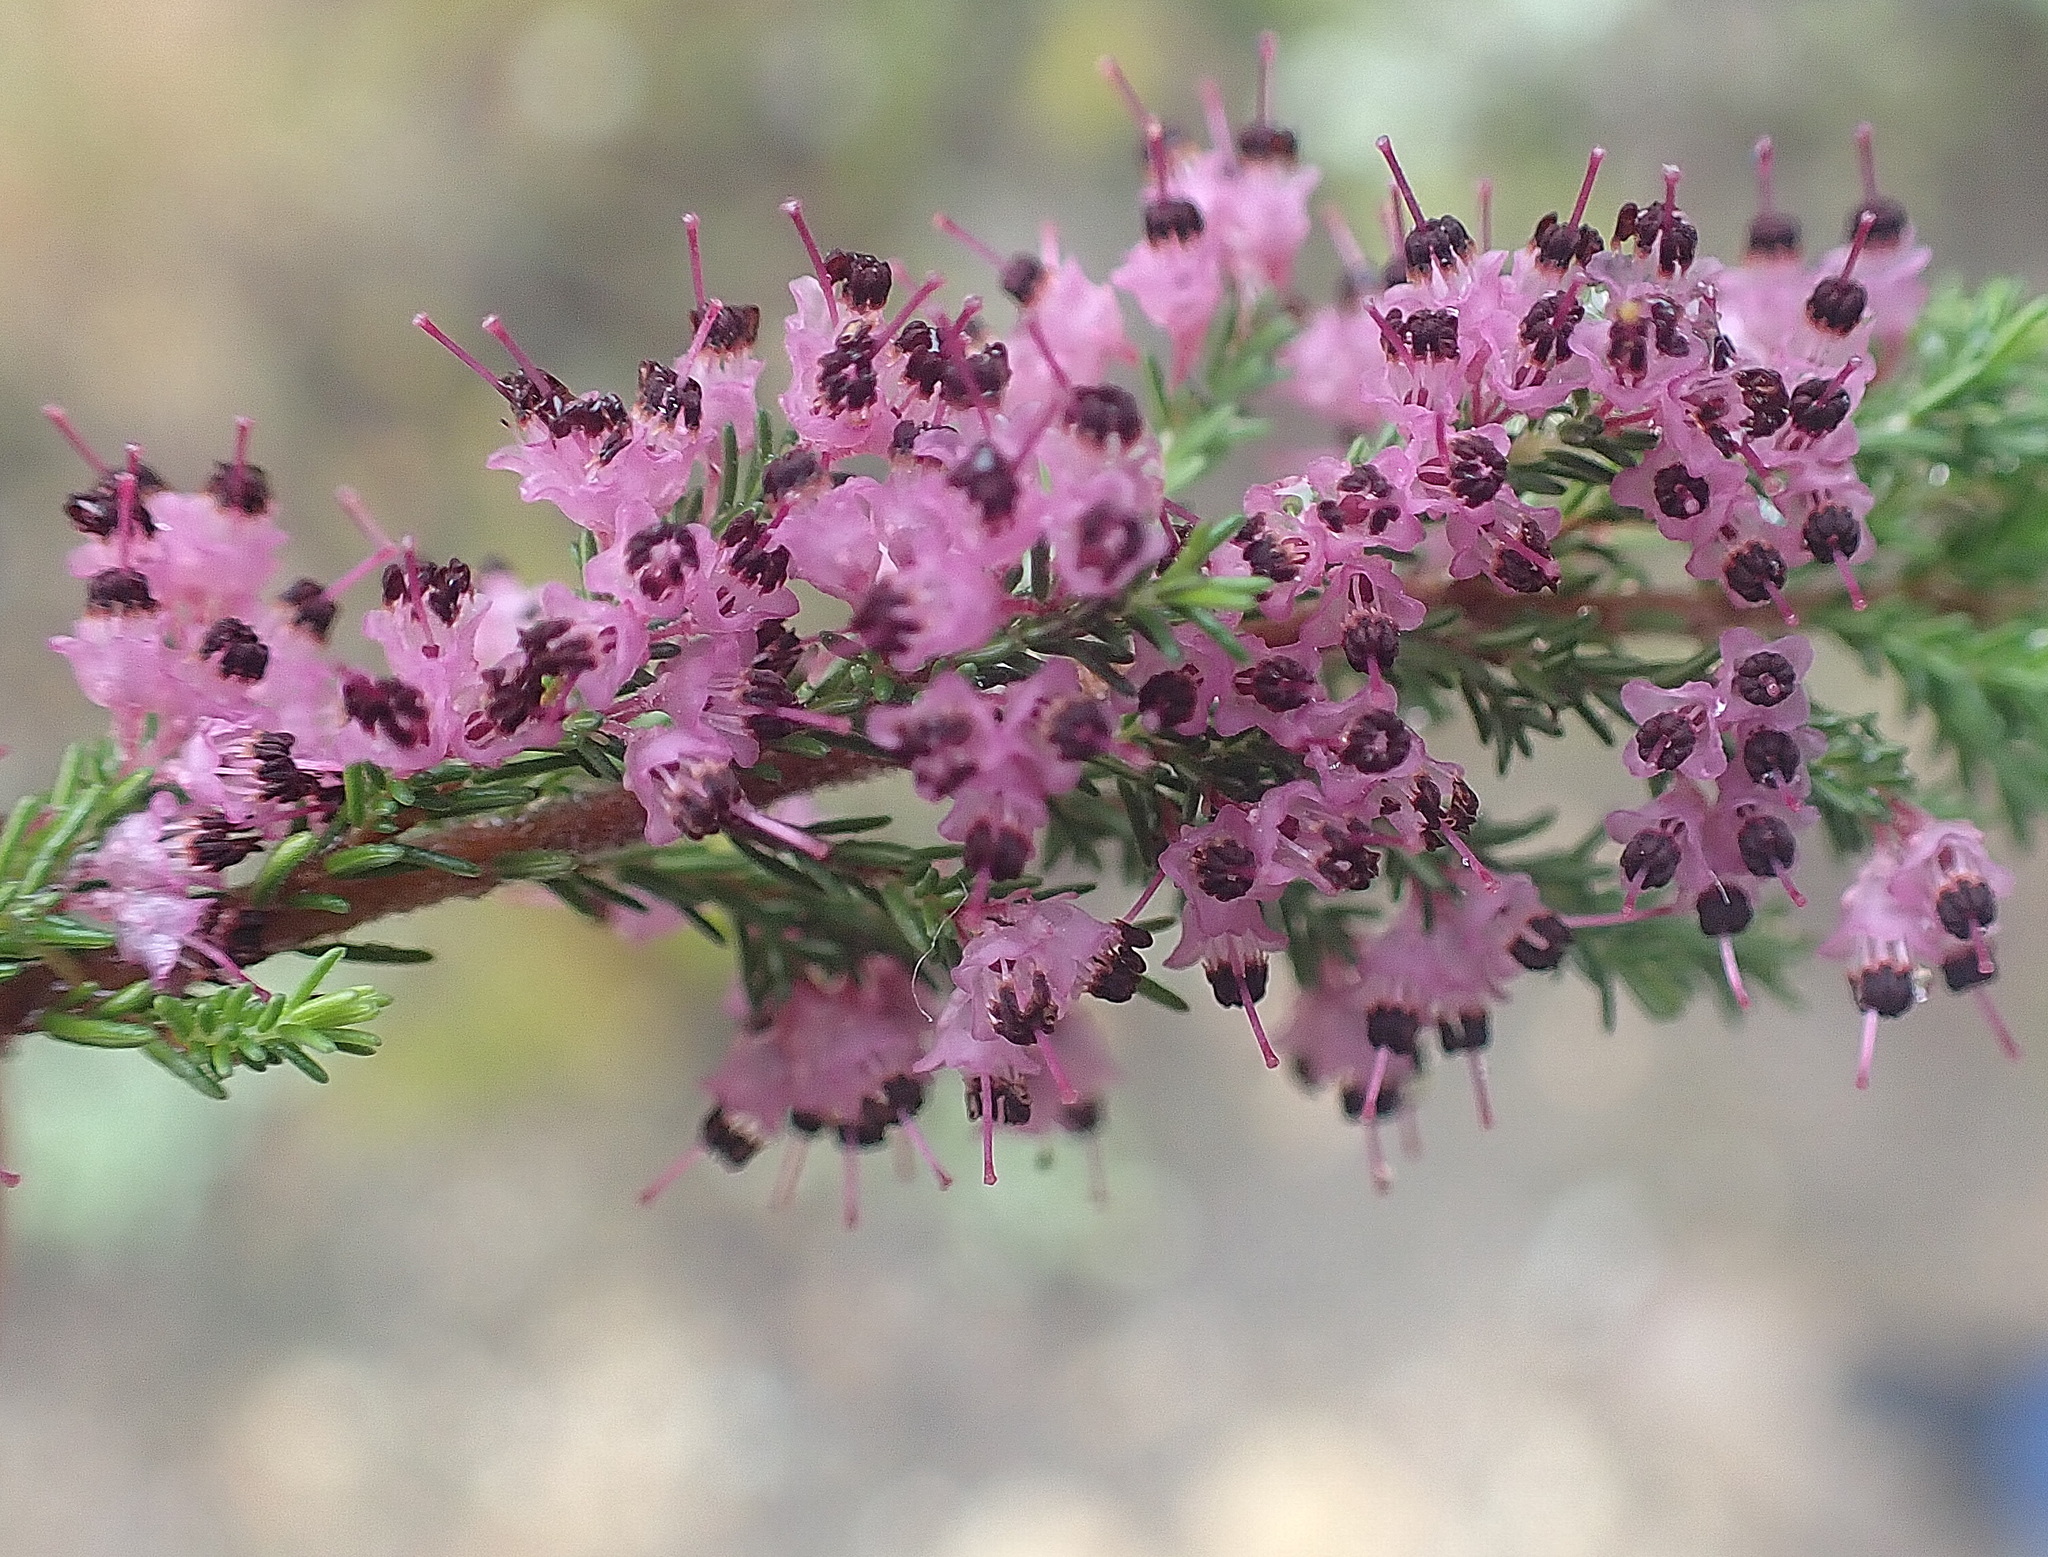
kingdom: Plantae
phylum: Tracheophyta
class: Magnoliopsida
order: Ericales
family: Ericaceae
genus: Erica
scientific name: Erica opulenta
